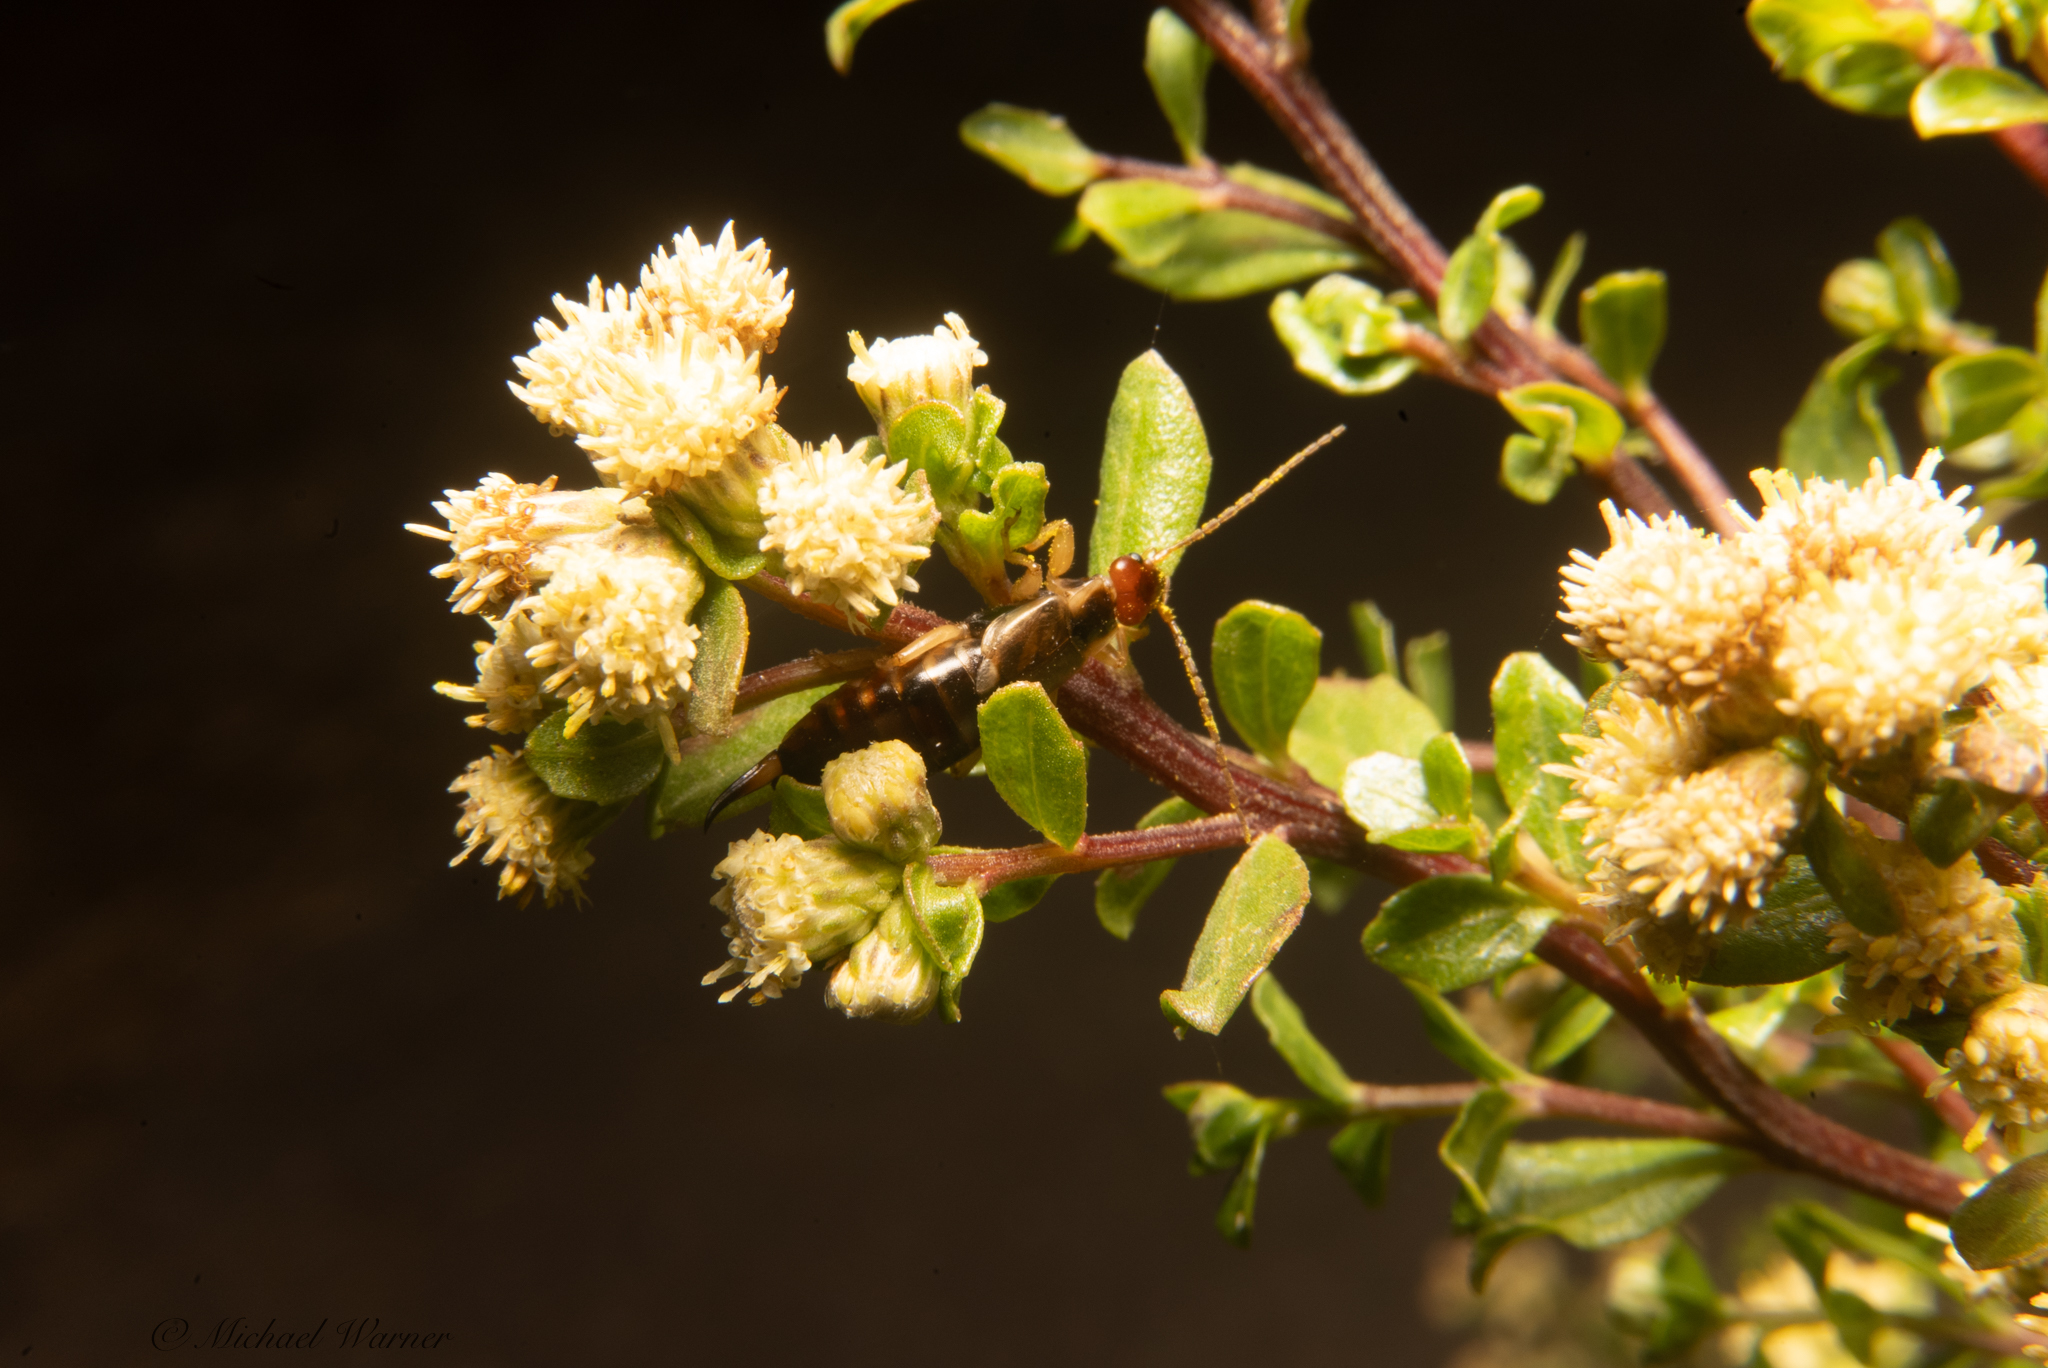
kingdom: Animalia
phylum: Arthropoda
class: Insecta
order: Dermaptera
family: Forficulidae
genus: Forficula
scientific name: Forficula dentata
